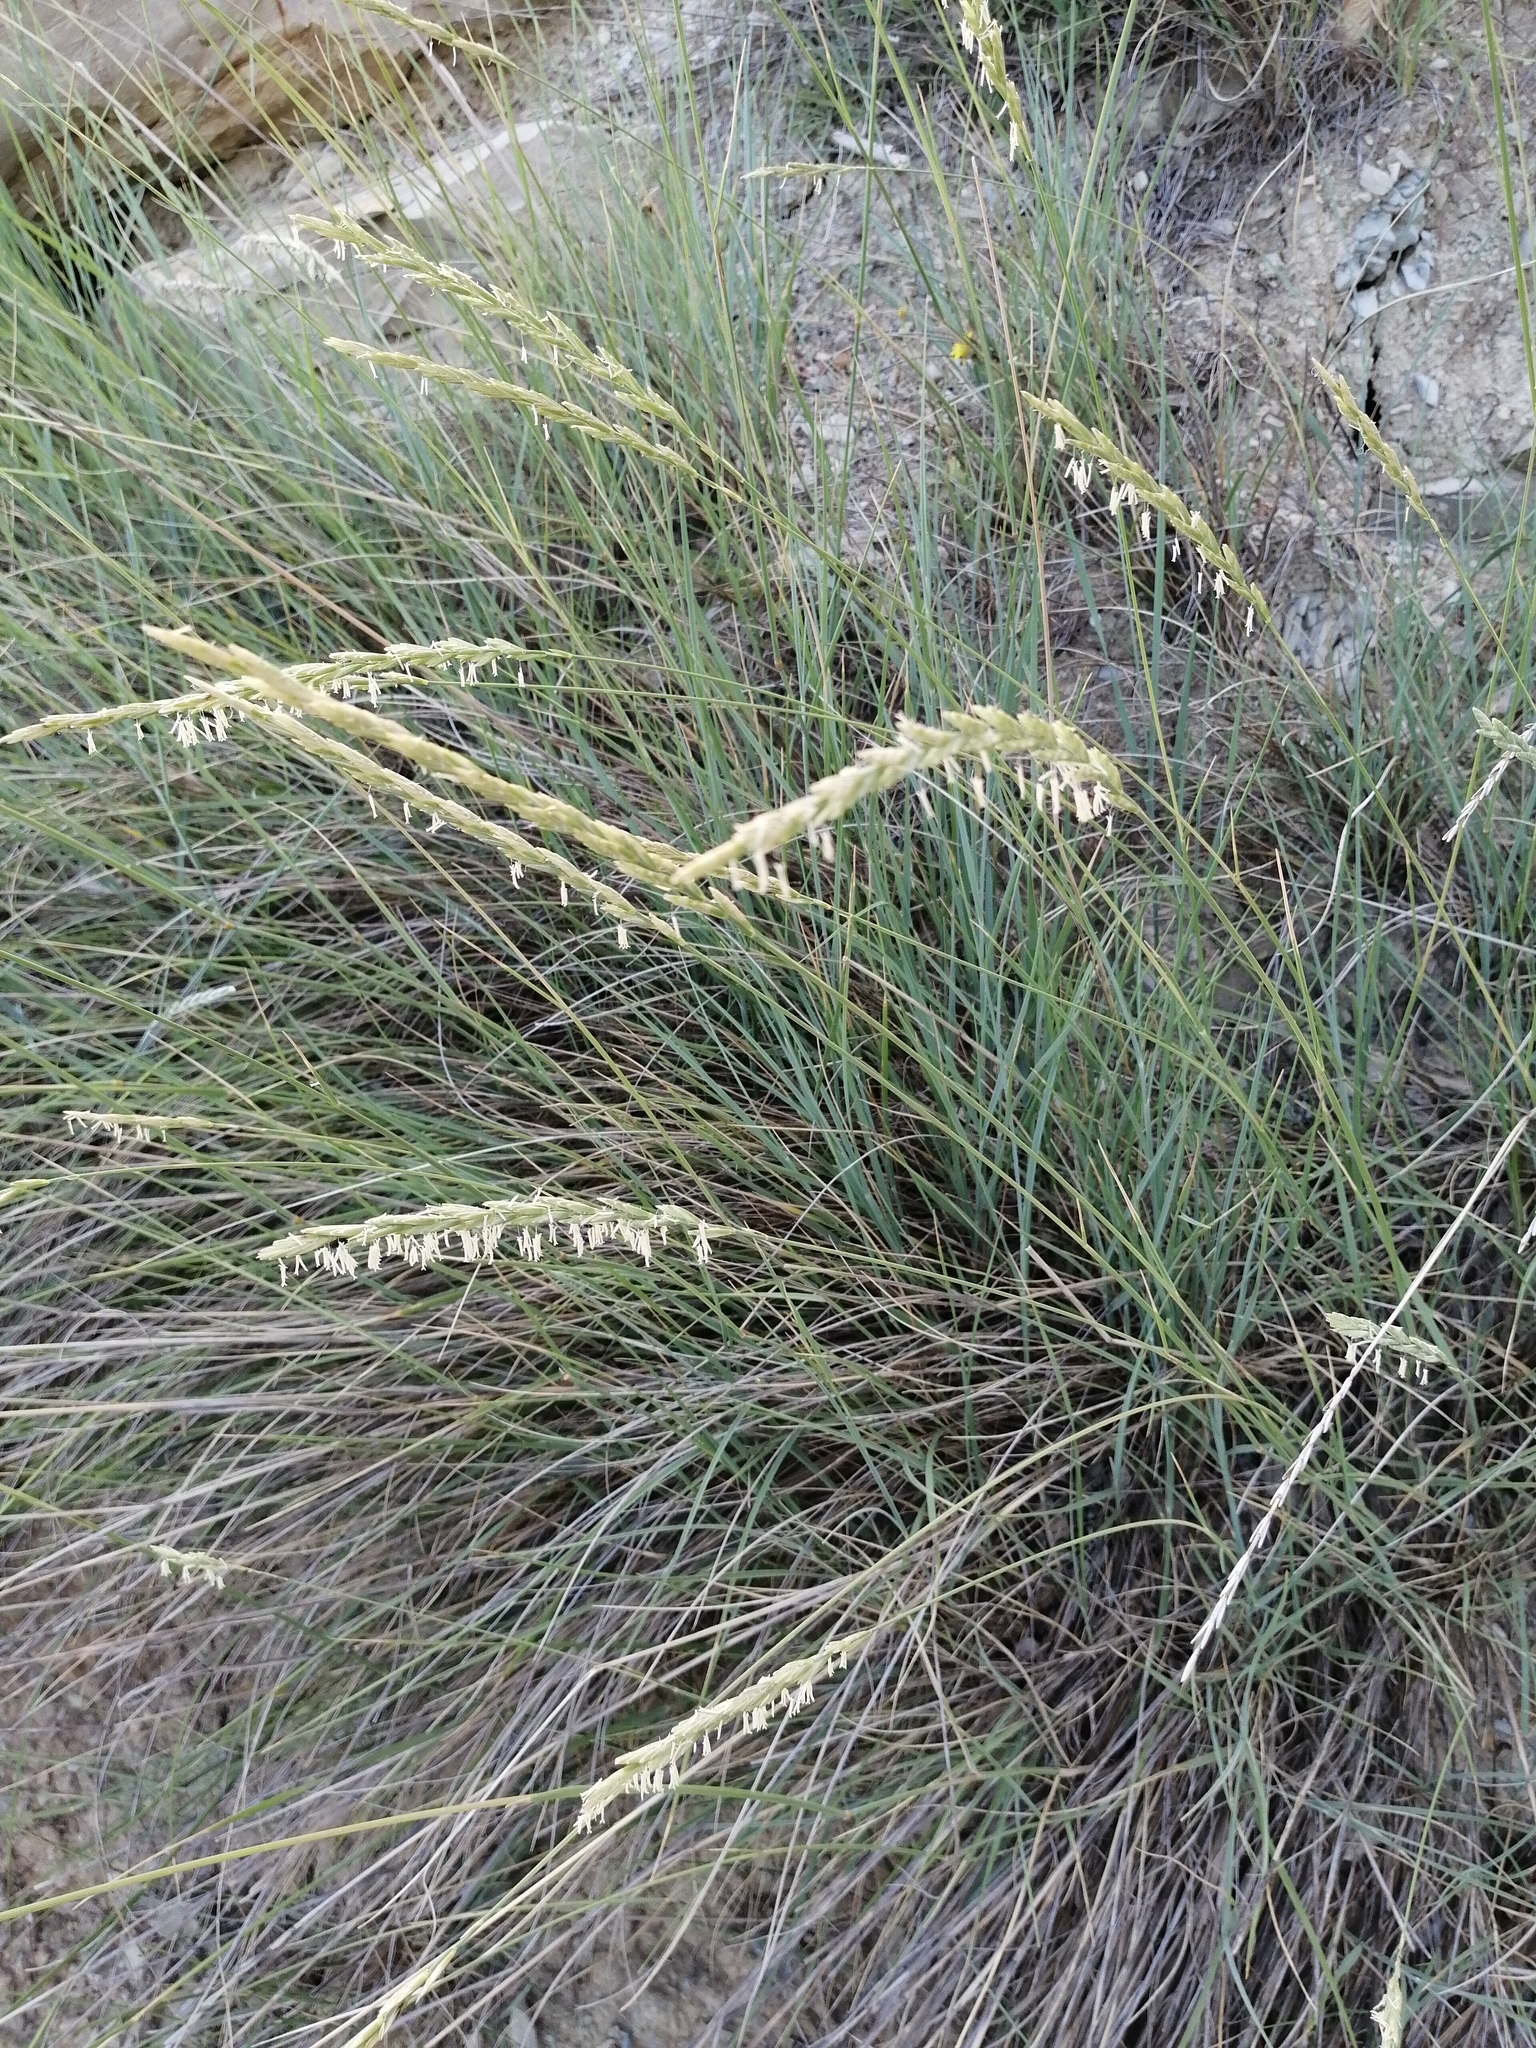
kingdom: Plantae
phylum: Tracheophyta
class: Liliopsida
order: Poales
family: Poaceae
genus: Agropyron
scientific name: Agropyron cristatum
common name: Crested wheatgrass
